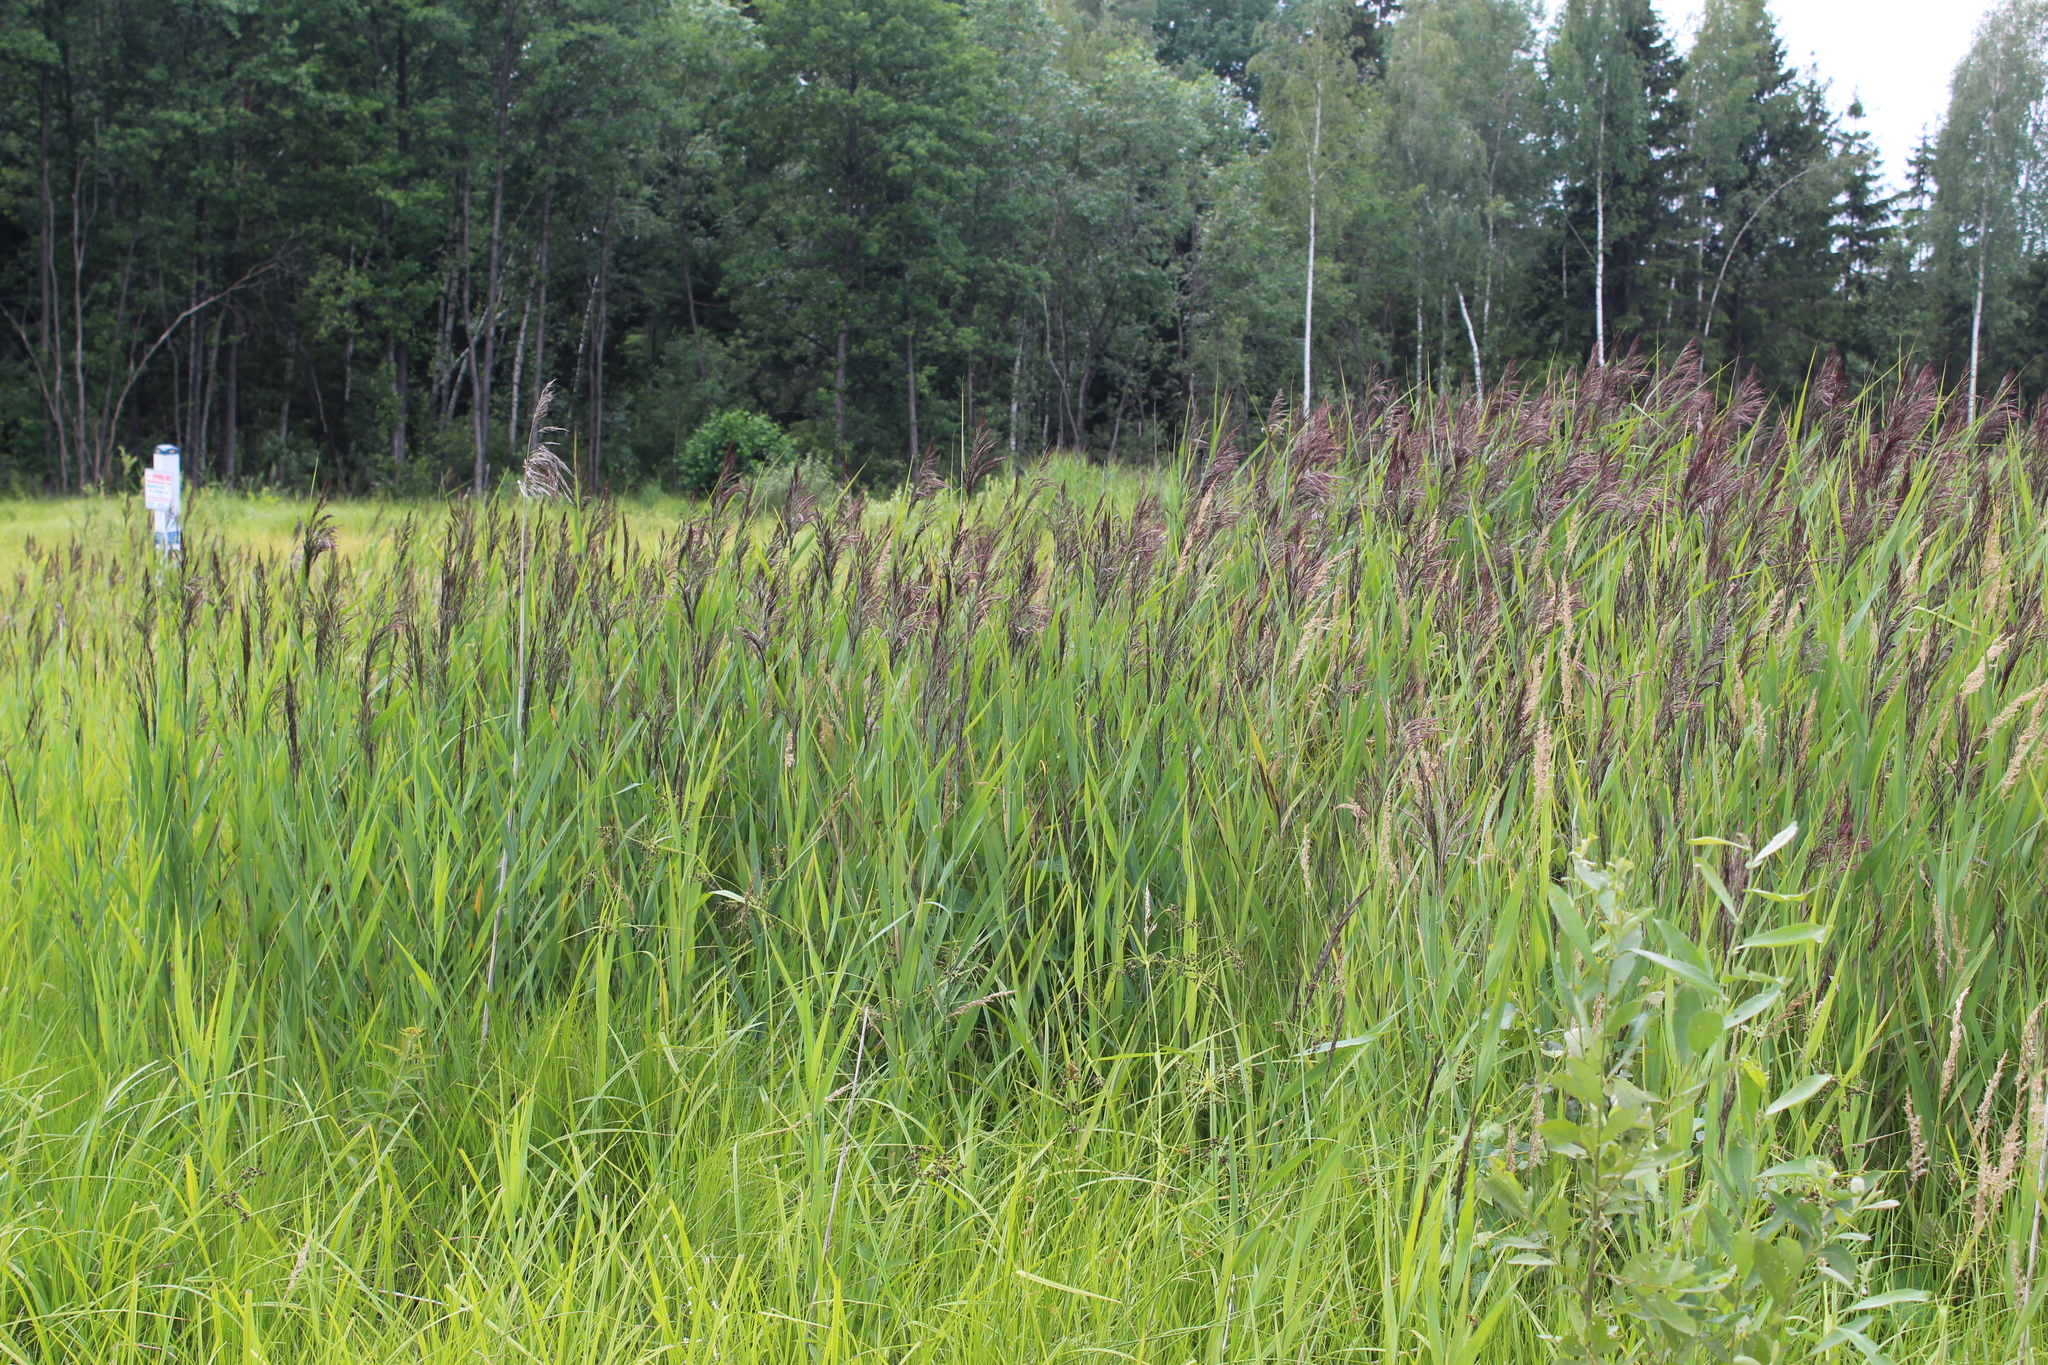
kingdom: Plantae
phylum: Tracheophyta
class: Liliopsida
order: Poales
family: Poaceae
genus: Phragmites
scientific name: Phragmites australis
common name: Common reed
